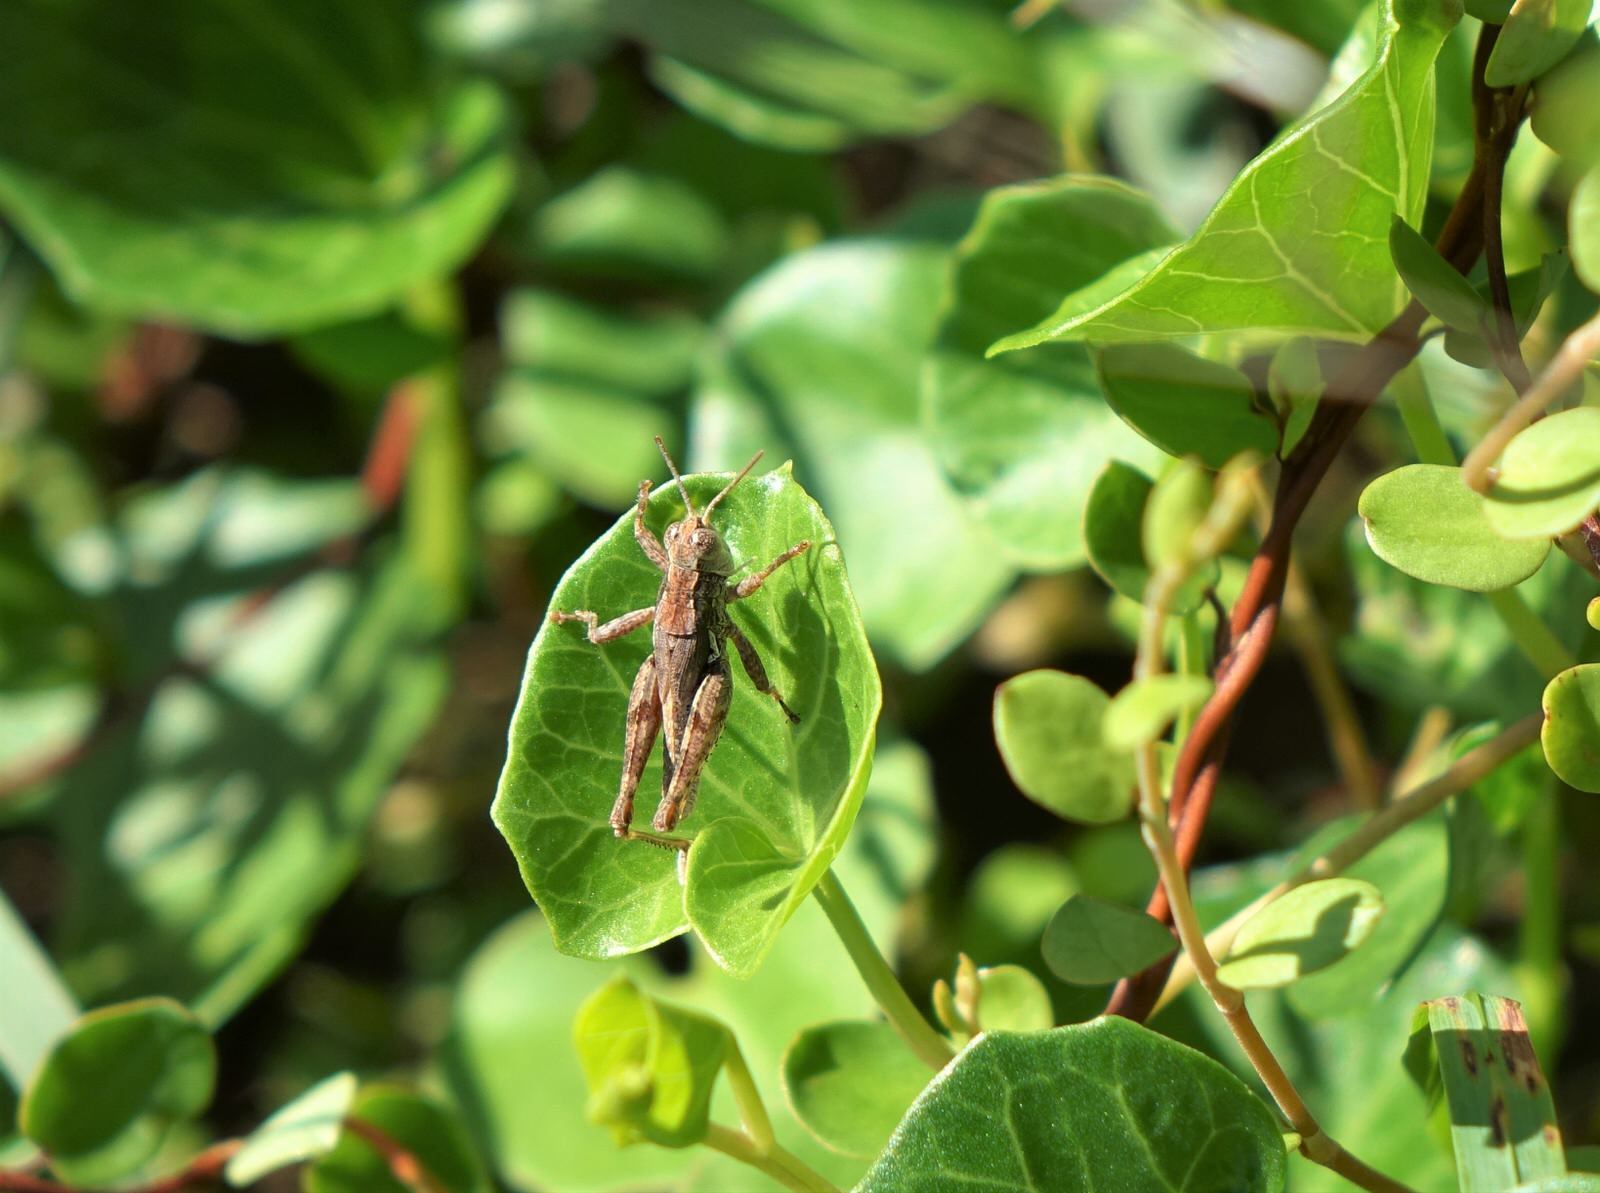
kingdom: Animalia
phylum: Arthropoda
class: Insecta
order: Orthoptera
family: Acrididae
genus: Phaulacridium
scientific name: Phaulacridium marginale
